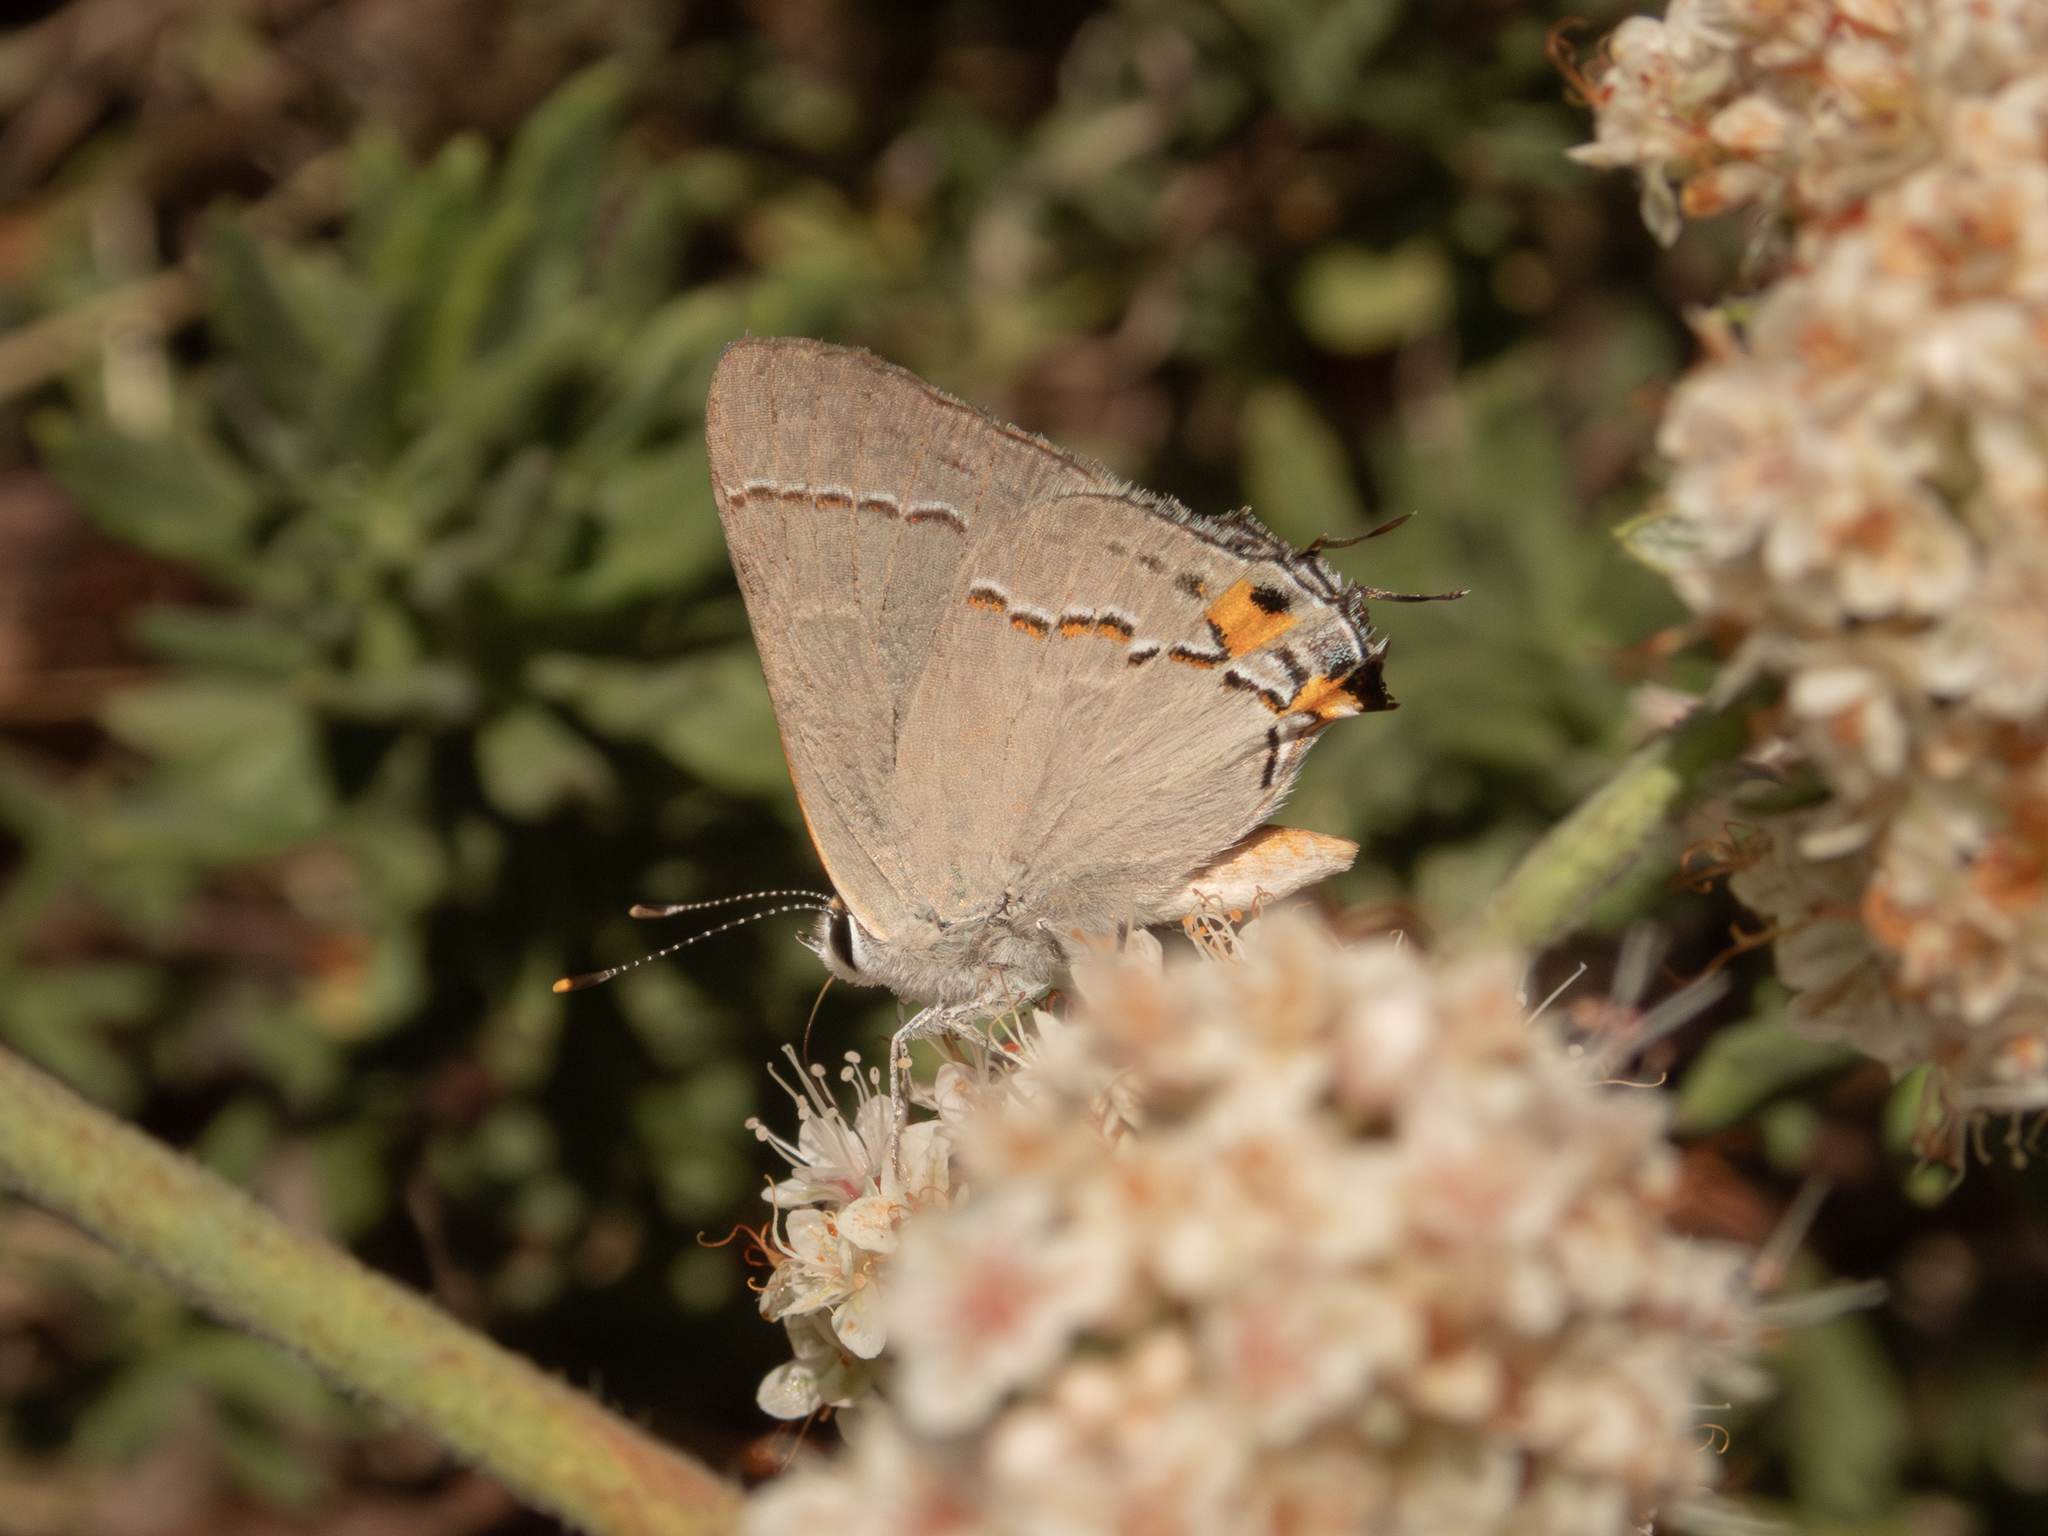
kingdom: Animalia
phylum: Arthropoda
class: Insecta
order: Lepidoptera
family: Lycaenidae
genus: Strymon
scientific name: Strymon melinus
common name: Gray hairstreak
